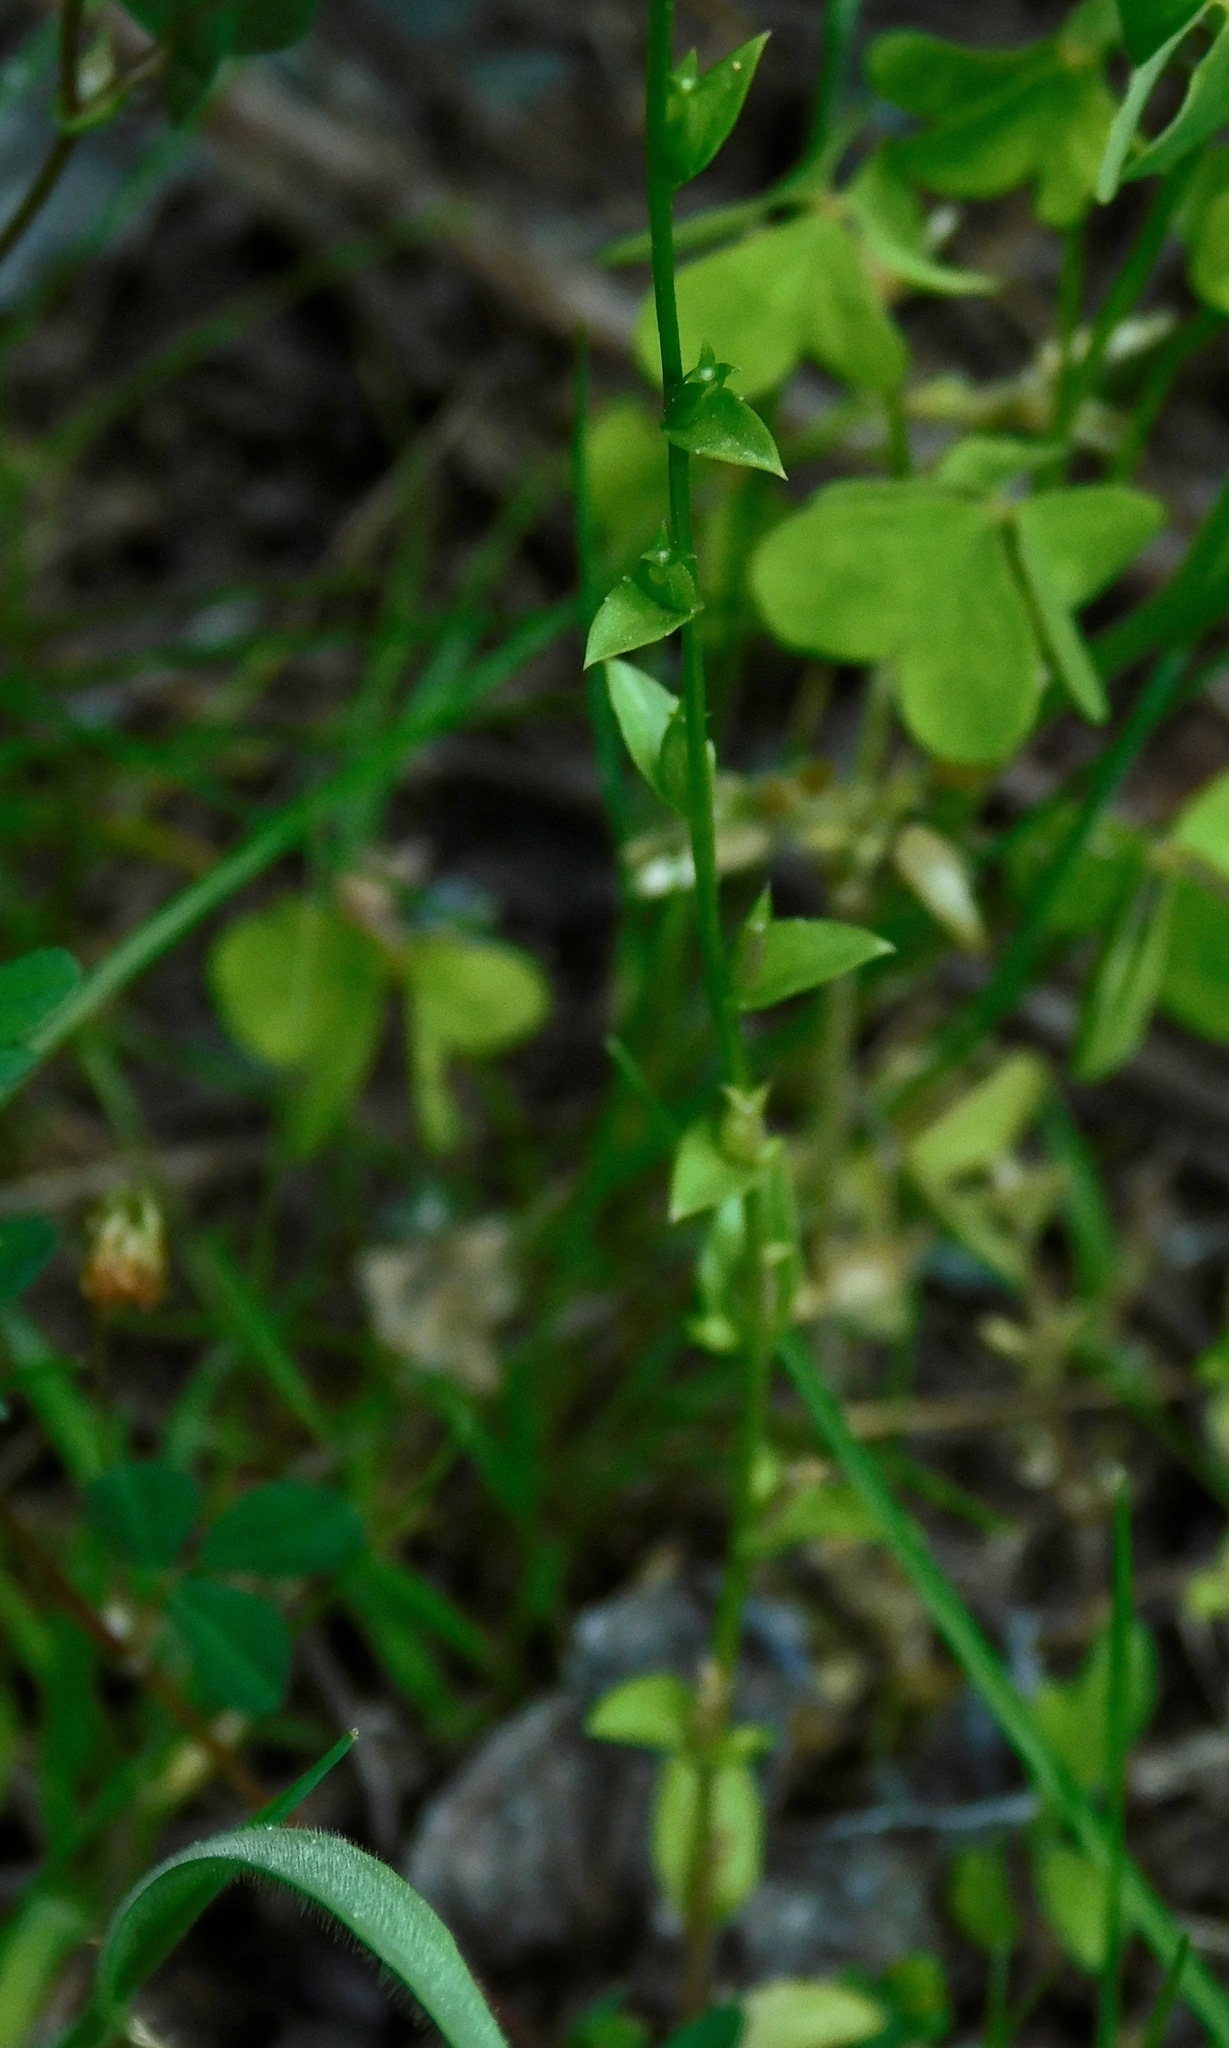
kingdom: Plantae
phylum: Tracheophyta
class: Magnoliopsida
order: Asterales
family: Campanulaceae
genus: Triodanis
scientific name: Triodanis biflora
